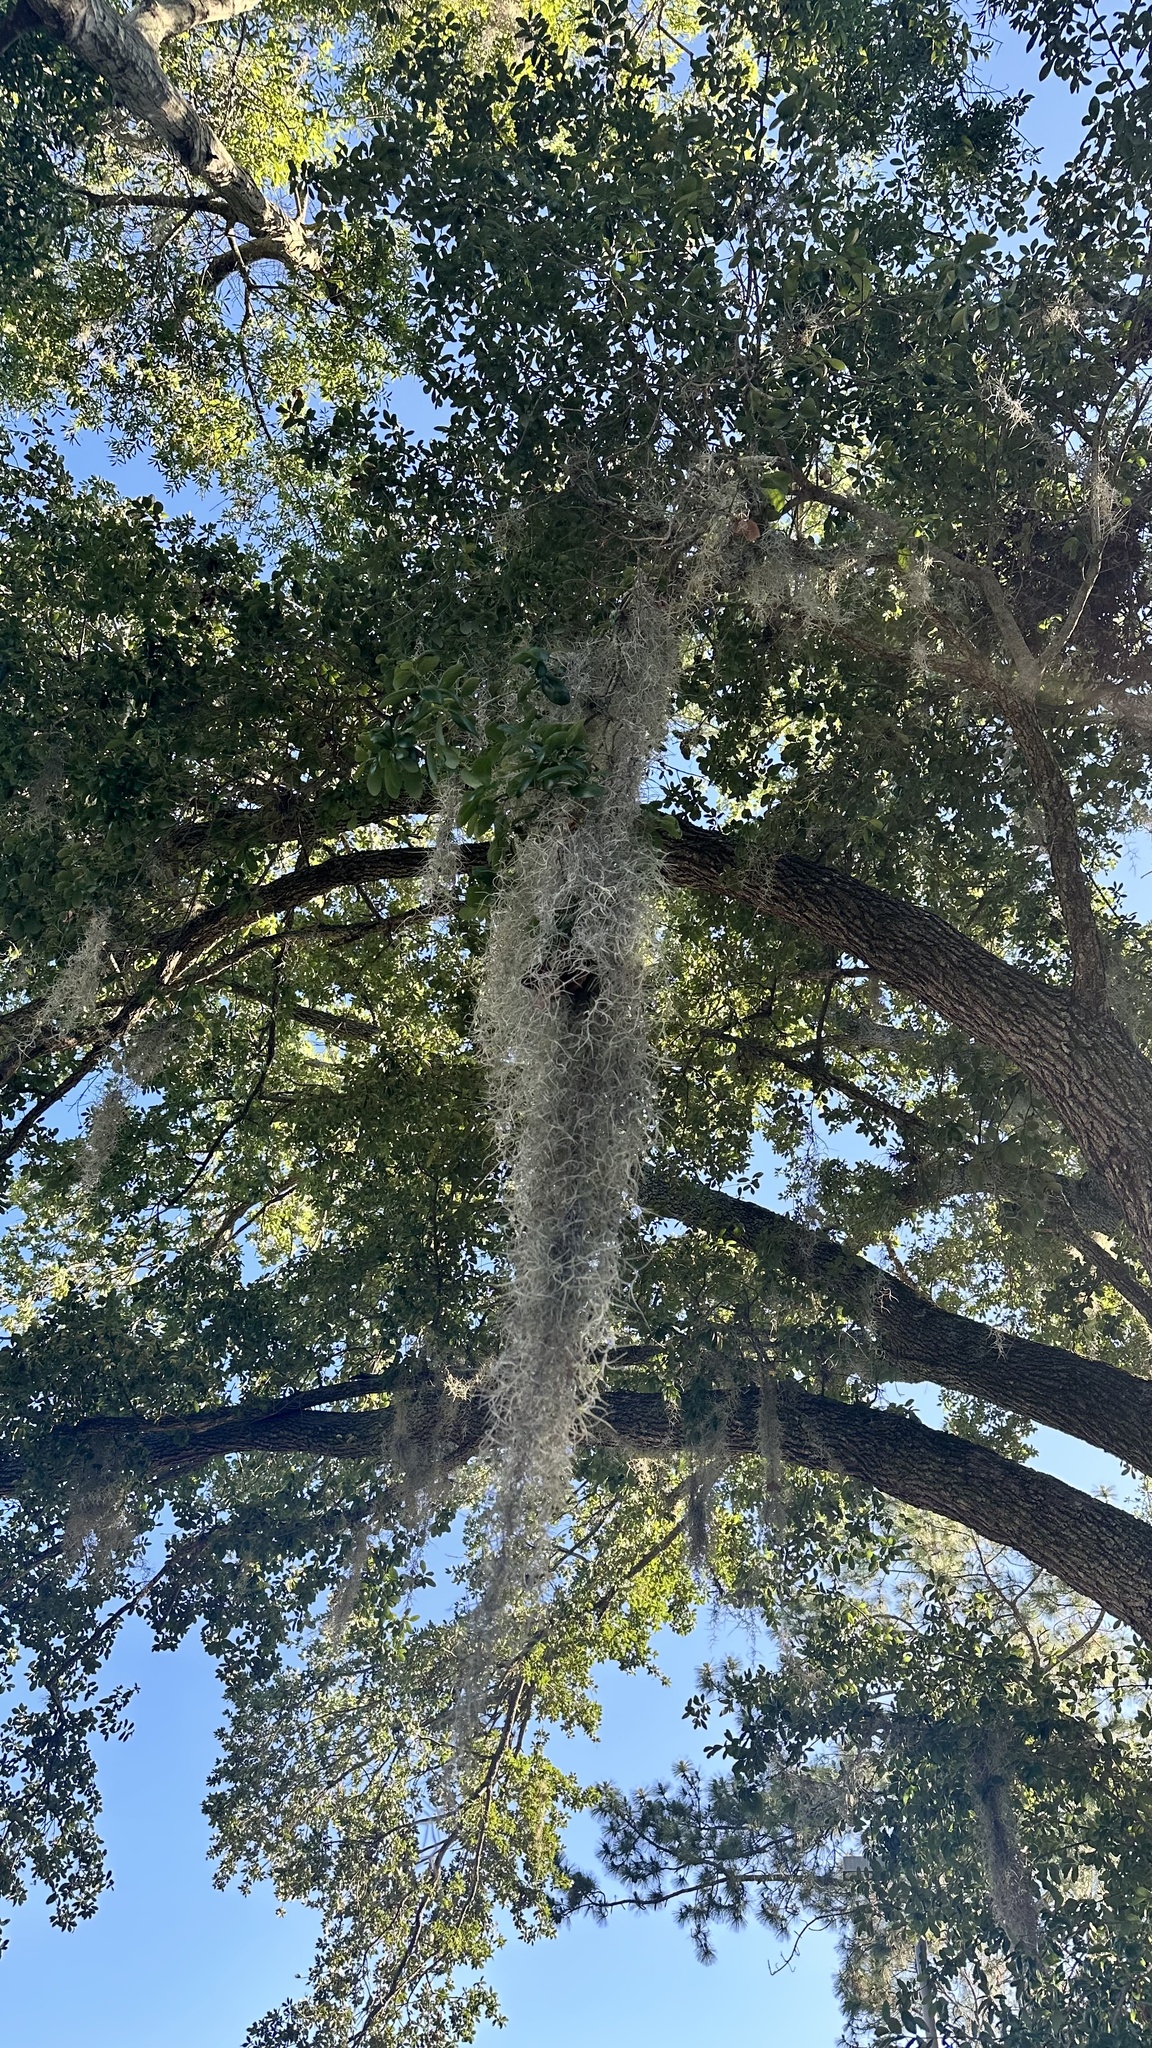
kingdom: Plantae
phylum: Tracheophyta
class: Liliopsida
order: Poales
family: Bromeliaceae
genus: Tillandsia
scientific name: Tillandsia usneoides
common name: Spanish moss
